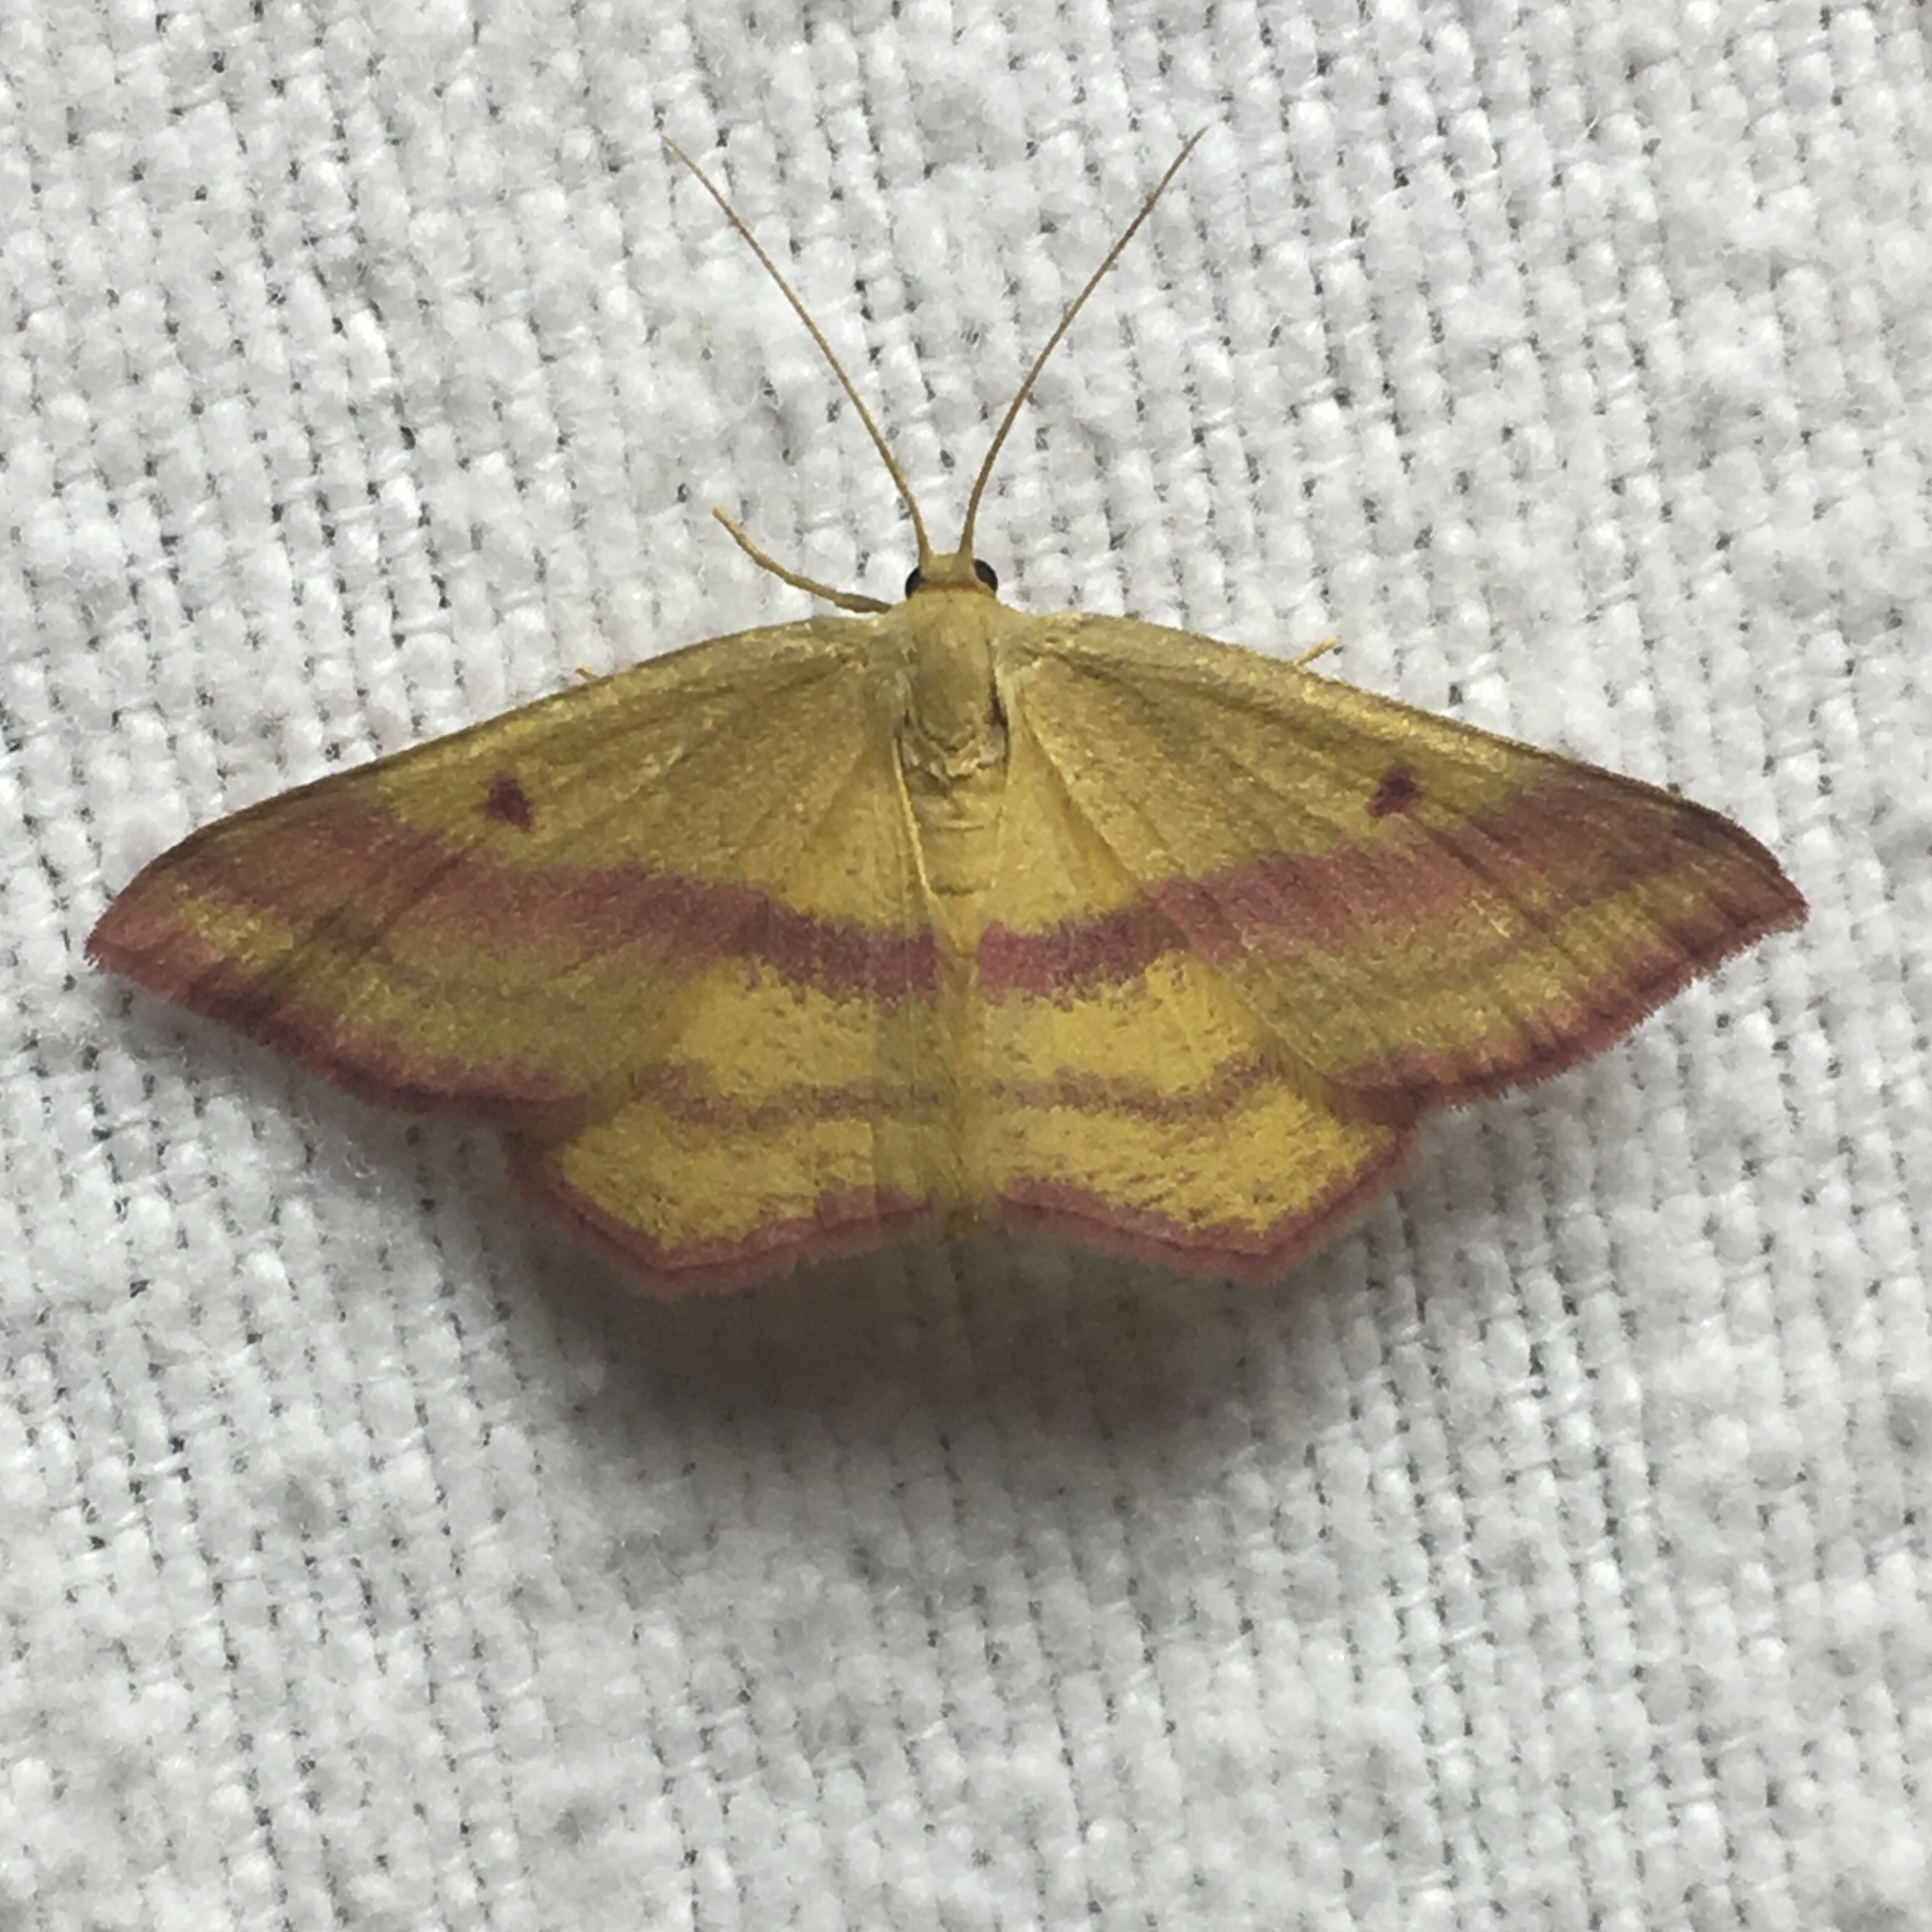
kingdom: Animalia
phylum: Arthropoda
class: Insecta
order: Lepidoptera
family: Geometridae
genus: Haematopis
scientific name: Haematopis grataria
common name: Chickweed geometer
